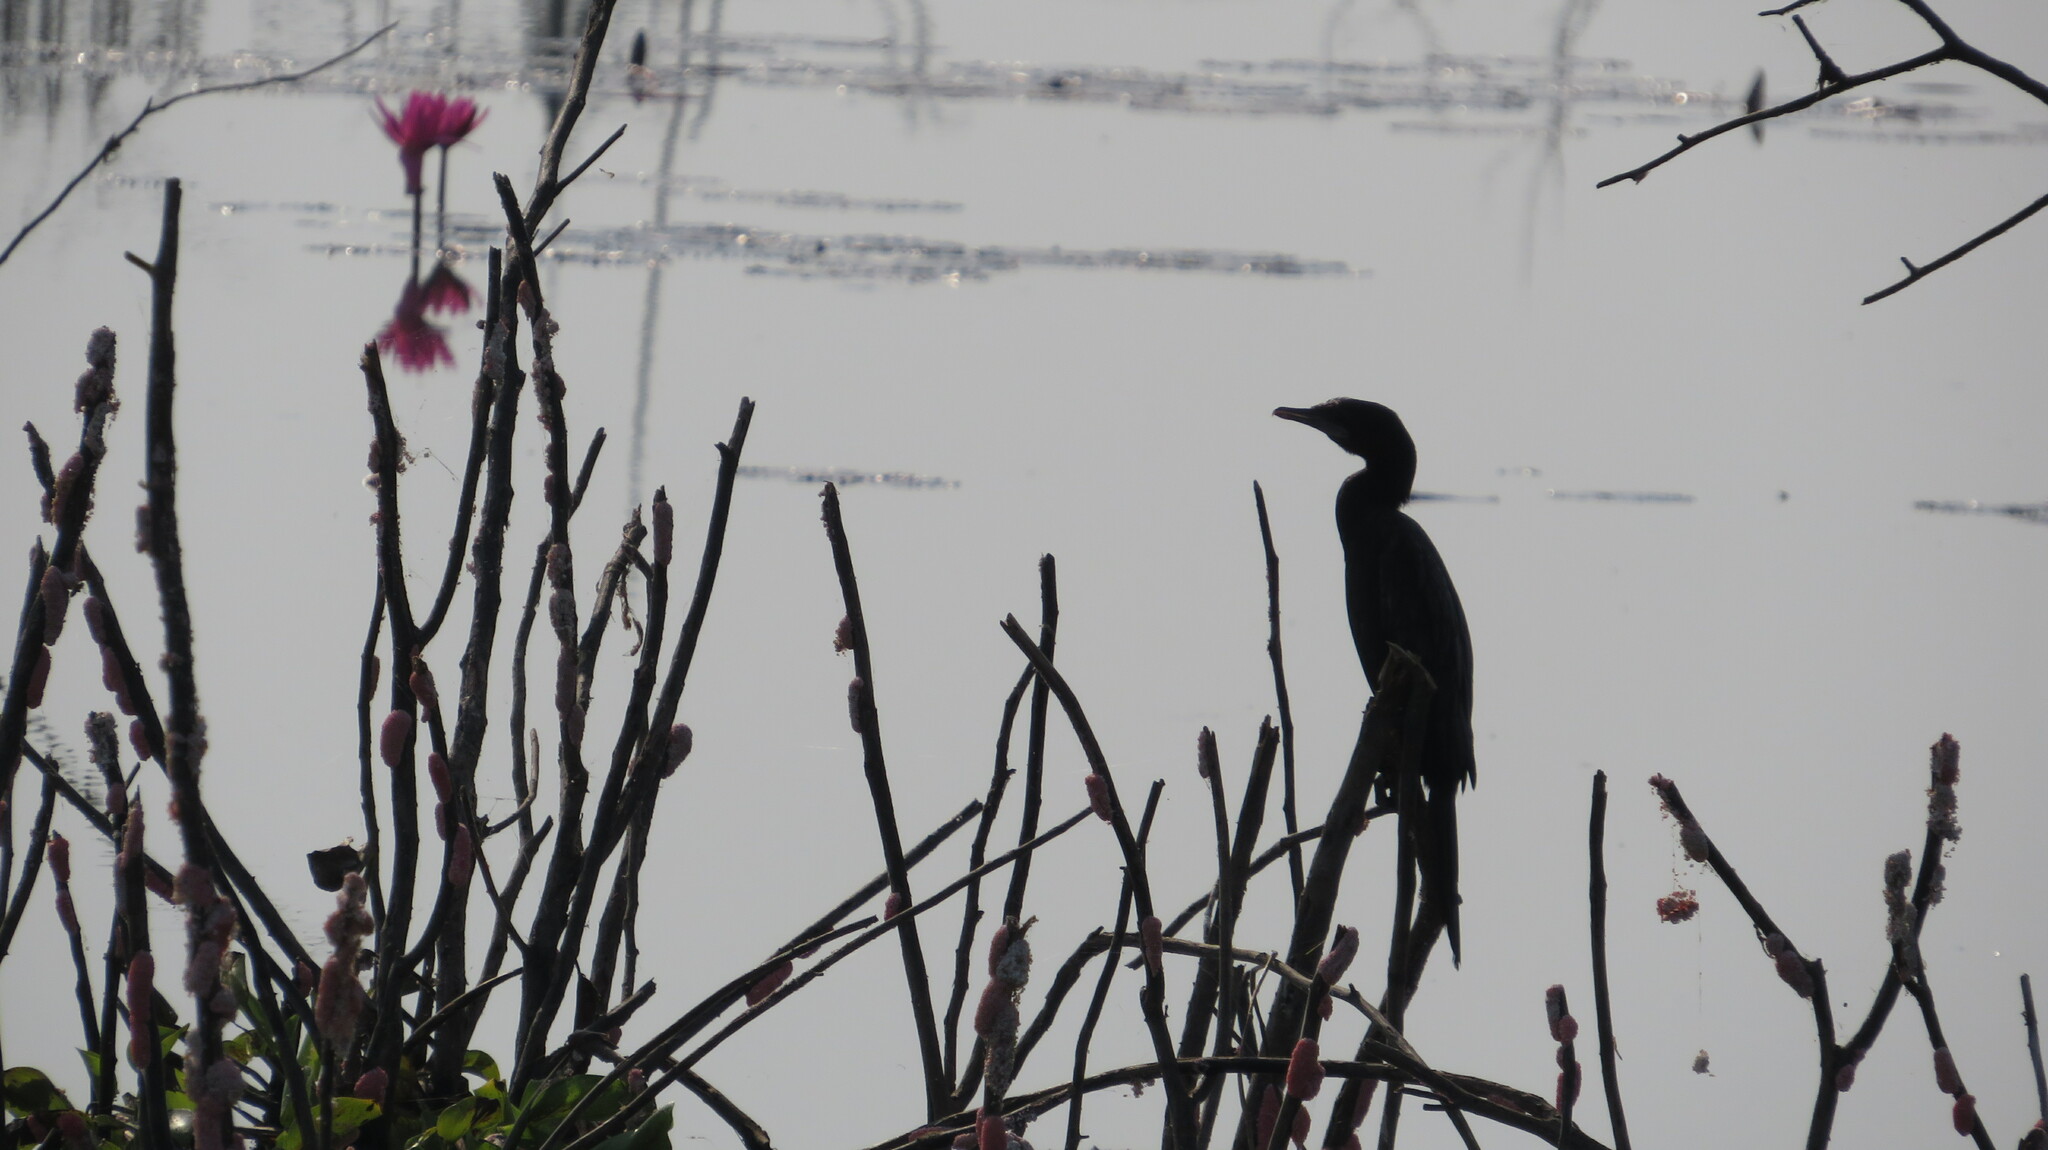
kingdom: Animalia
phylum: Chordata
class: Aves
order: Suliformes
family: Phalacrocoracidae
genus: Microcarbo
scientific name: Microcarbo niger
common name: Little cormorant
